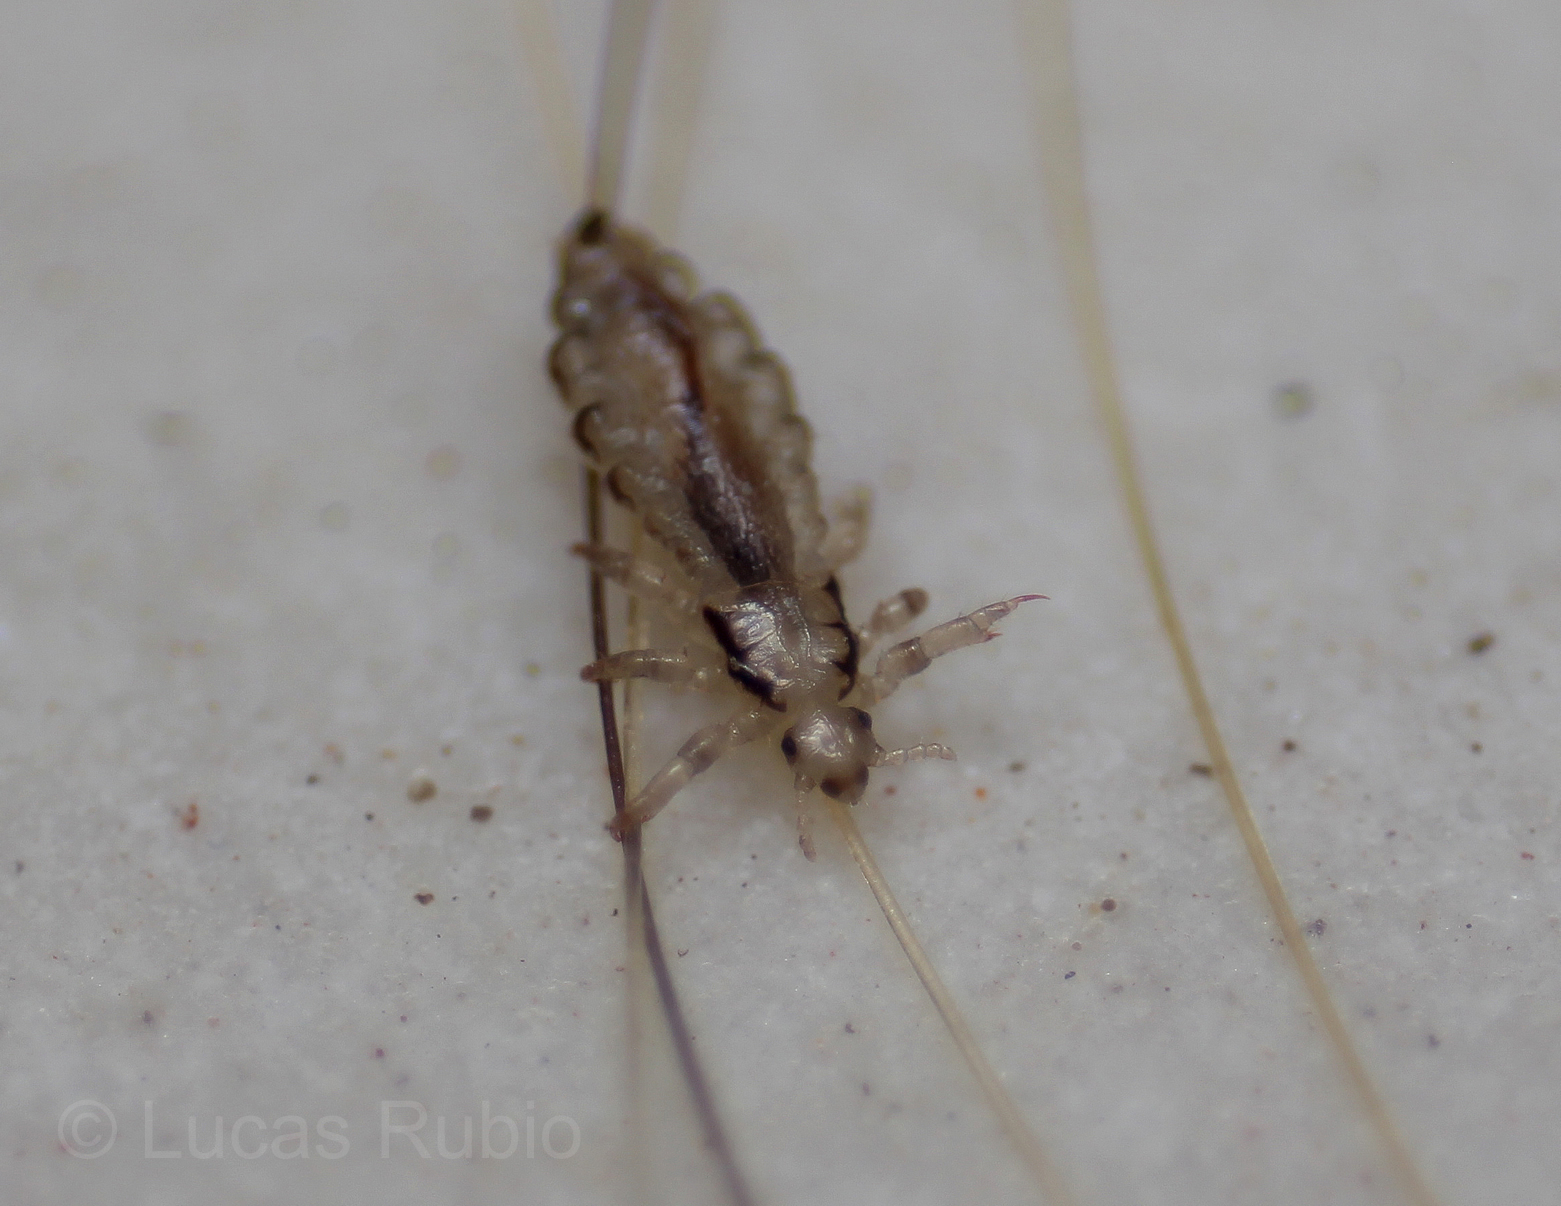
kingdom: Animalia
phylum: Arthropoda
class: Insecta
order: Psocodea
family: Pediculidae
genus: Pediculus
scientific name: Pediculus humanus
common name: Body louse
